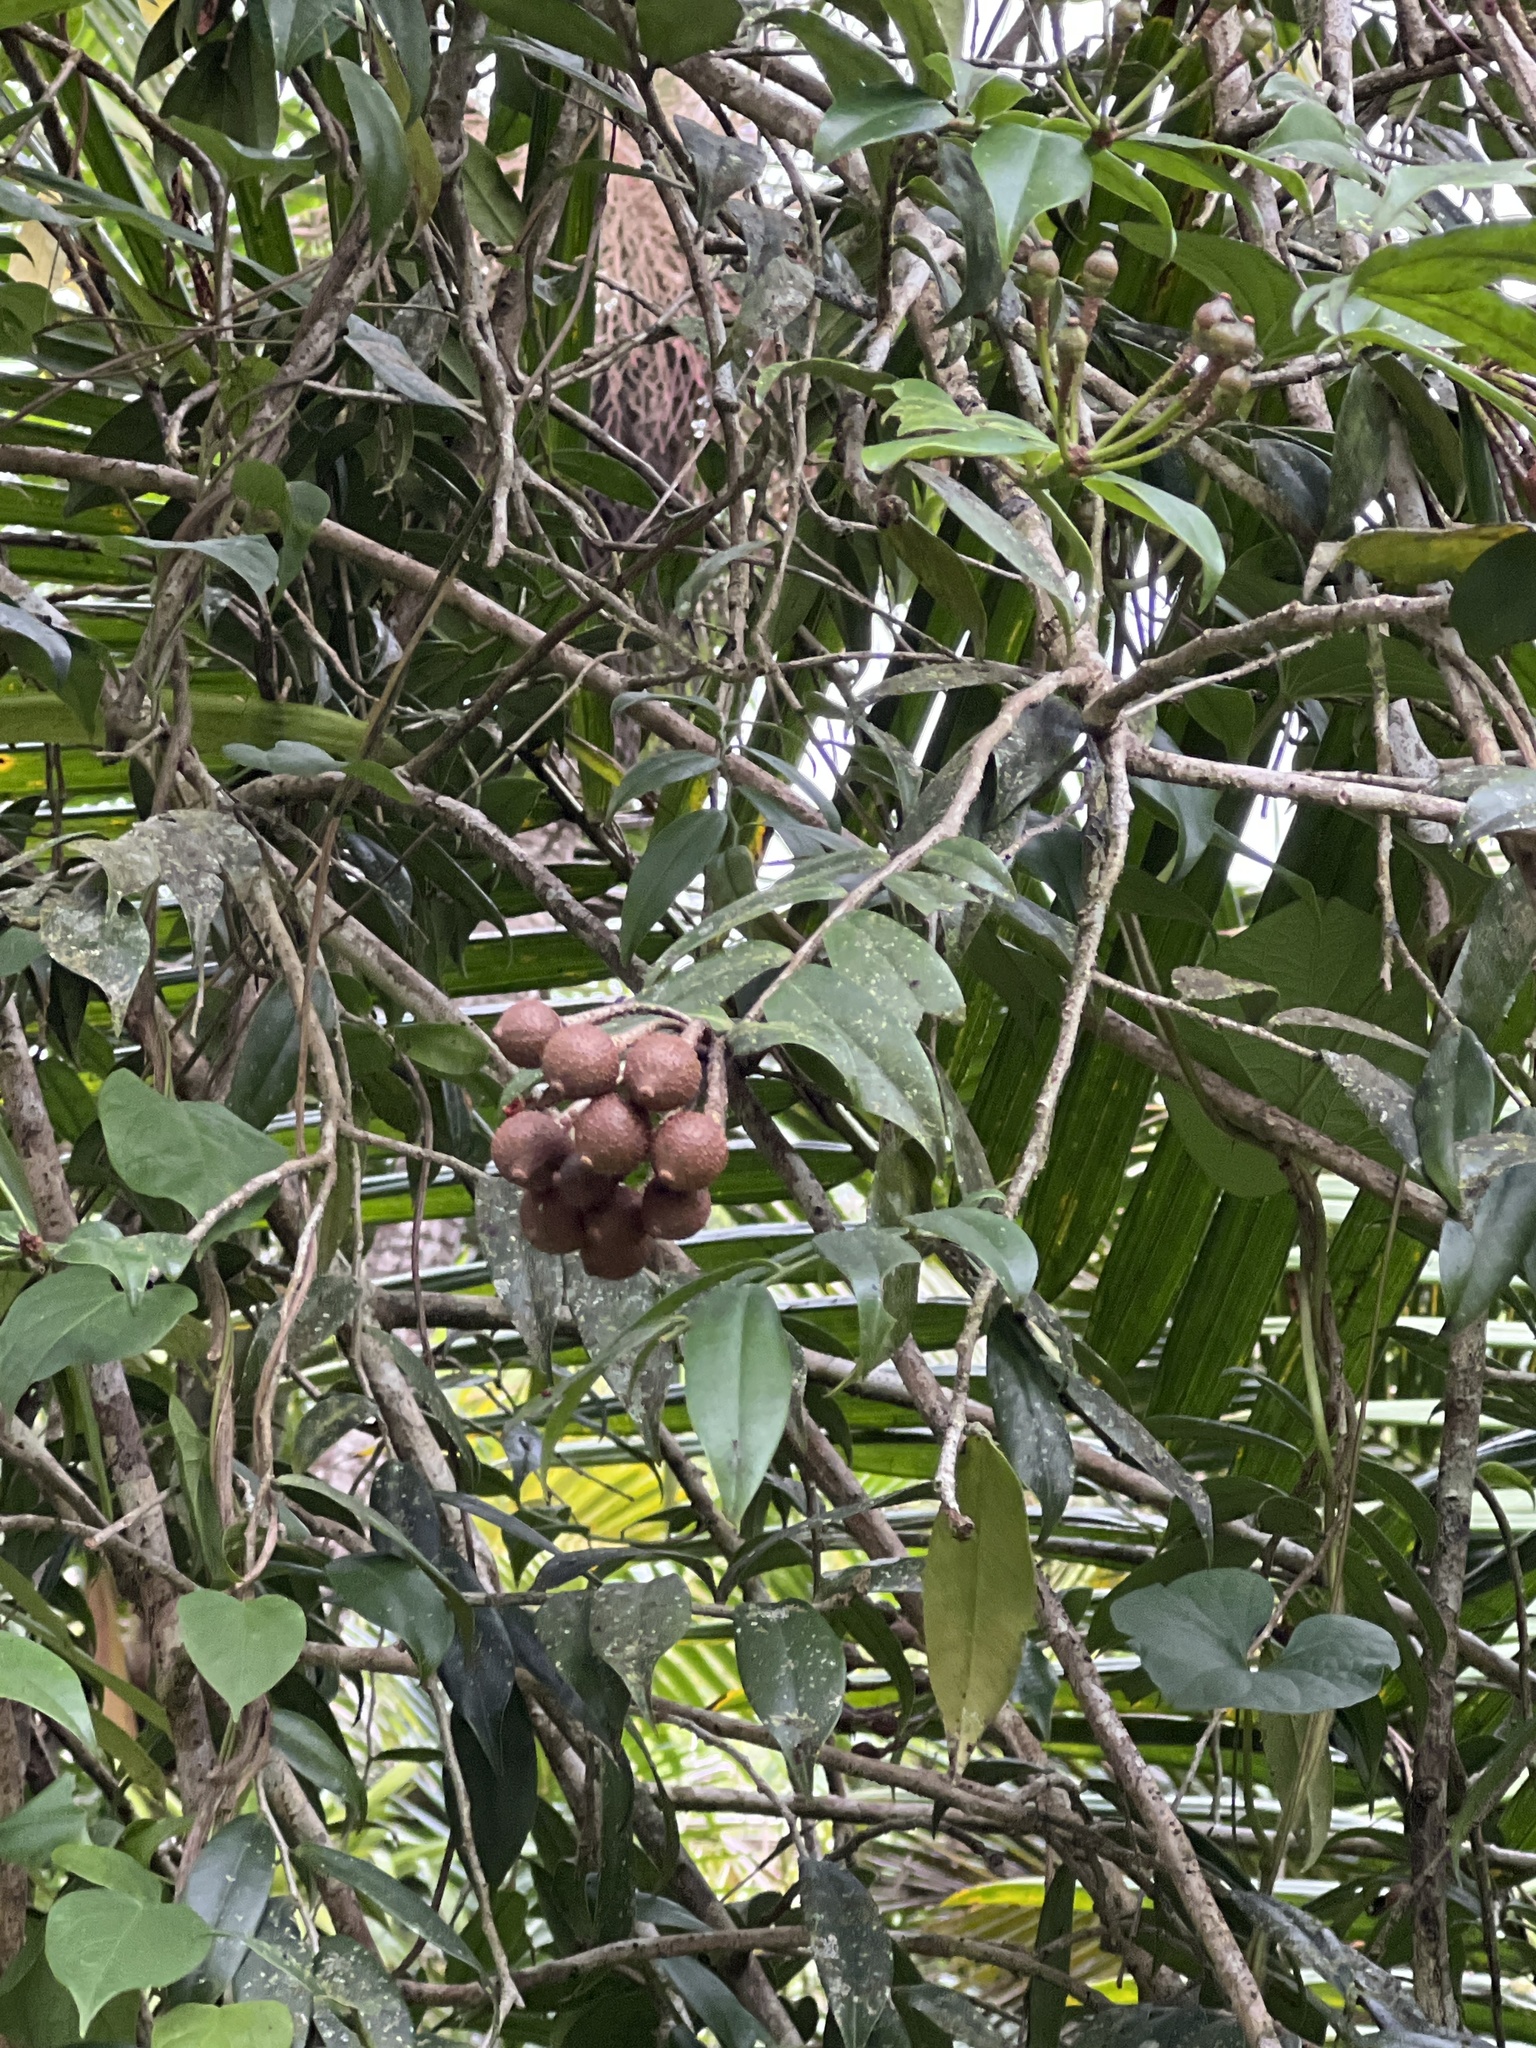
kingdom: Plantae
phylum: Tracheophyta
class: Magnoliopsida
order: Ericales
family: Marcgraviaceae
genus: Marcgravia
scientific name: Marcgravia rectiflora
